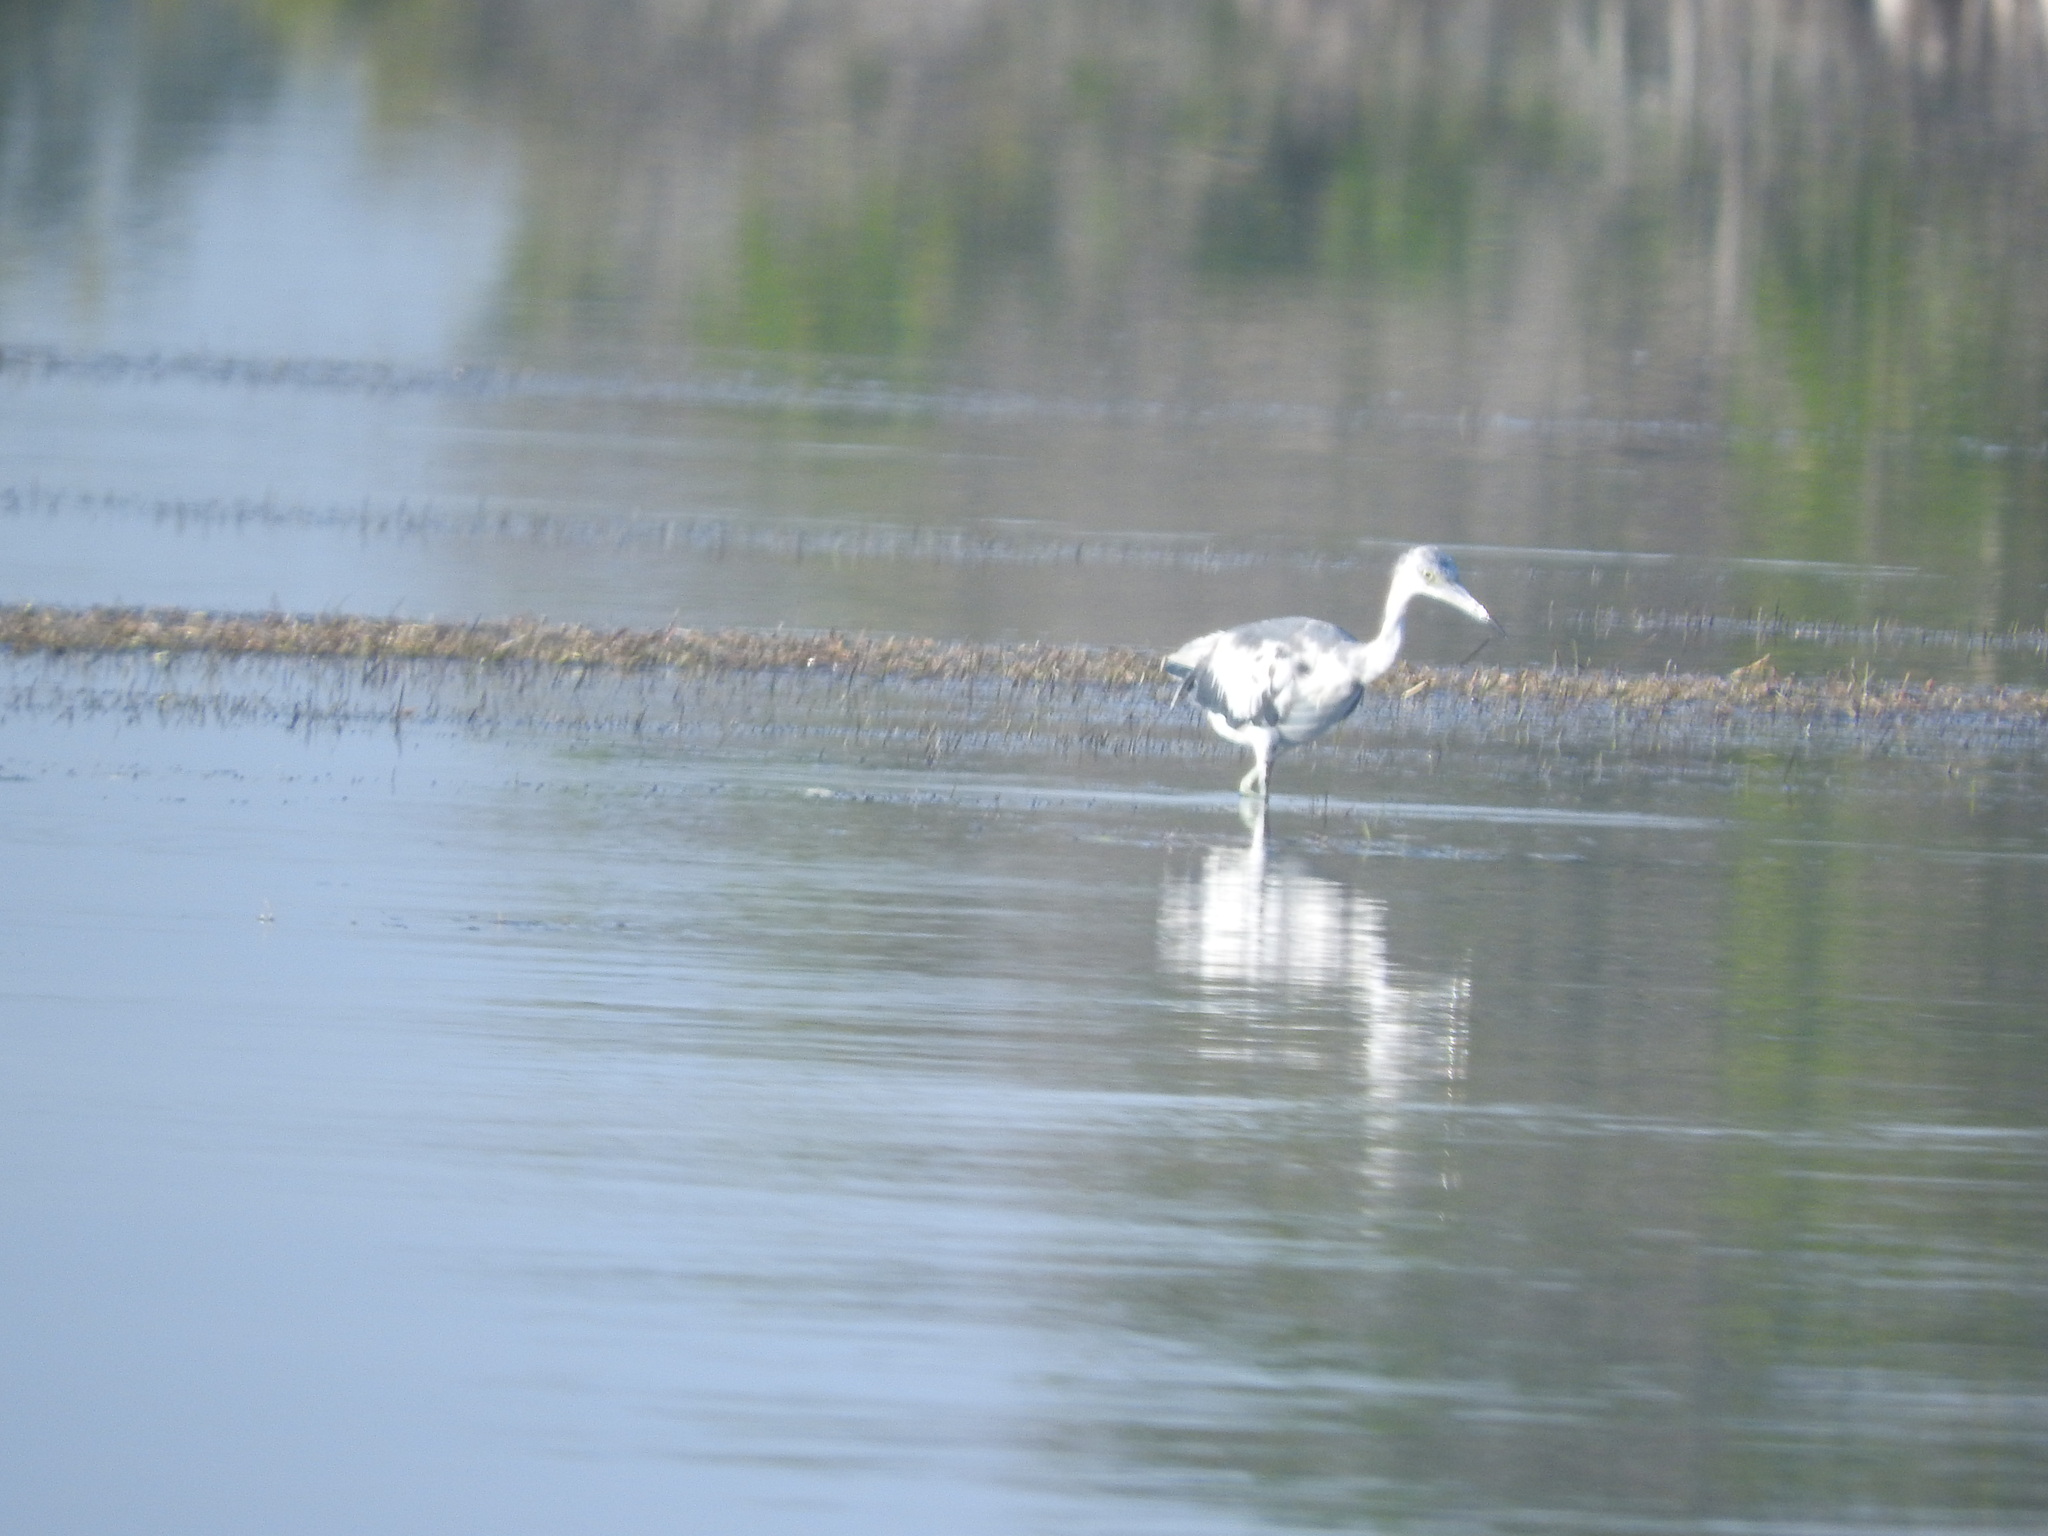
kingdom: Animalia
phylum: Chordata
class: Aves
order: Pelecaniformes
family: Ardeidae
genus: Egretta
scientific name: Egretta caerulea
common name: Little blue heron
